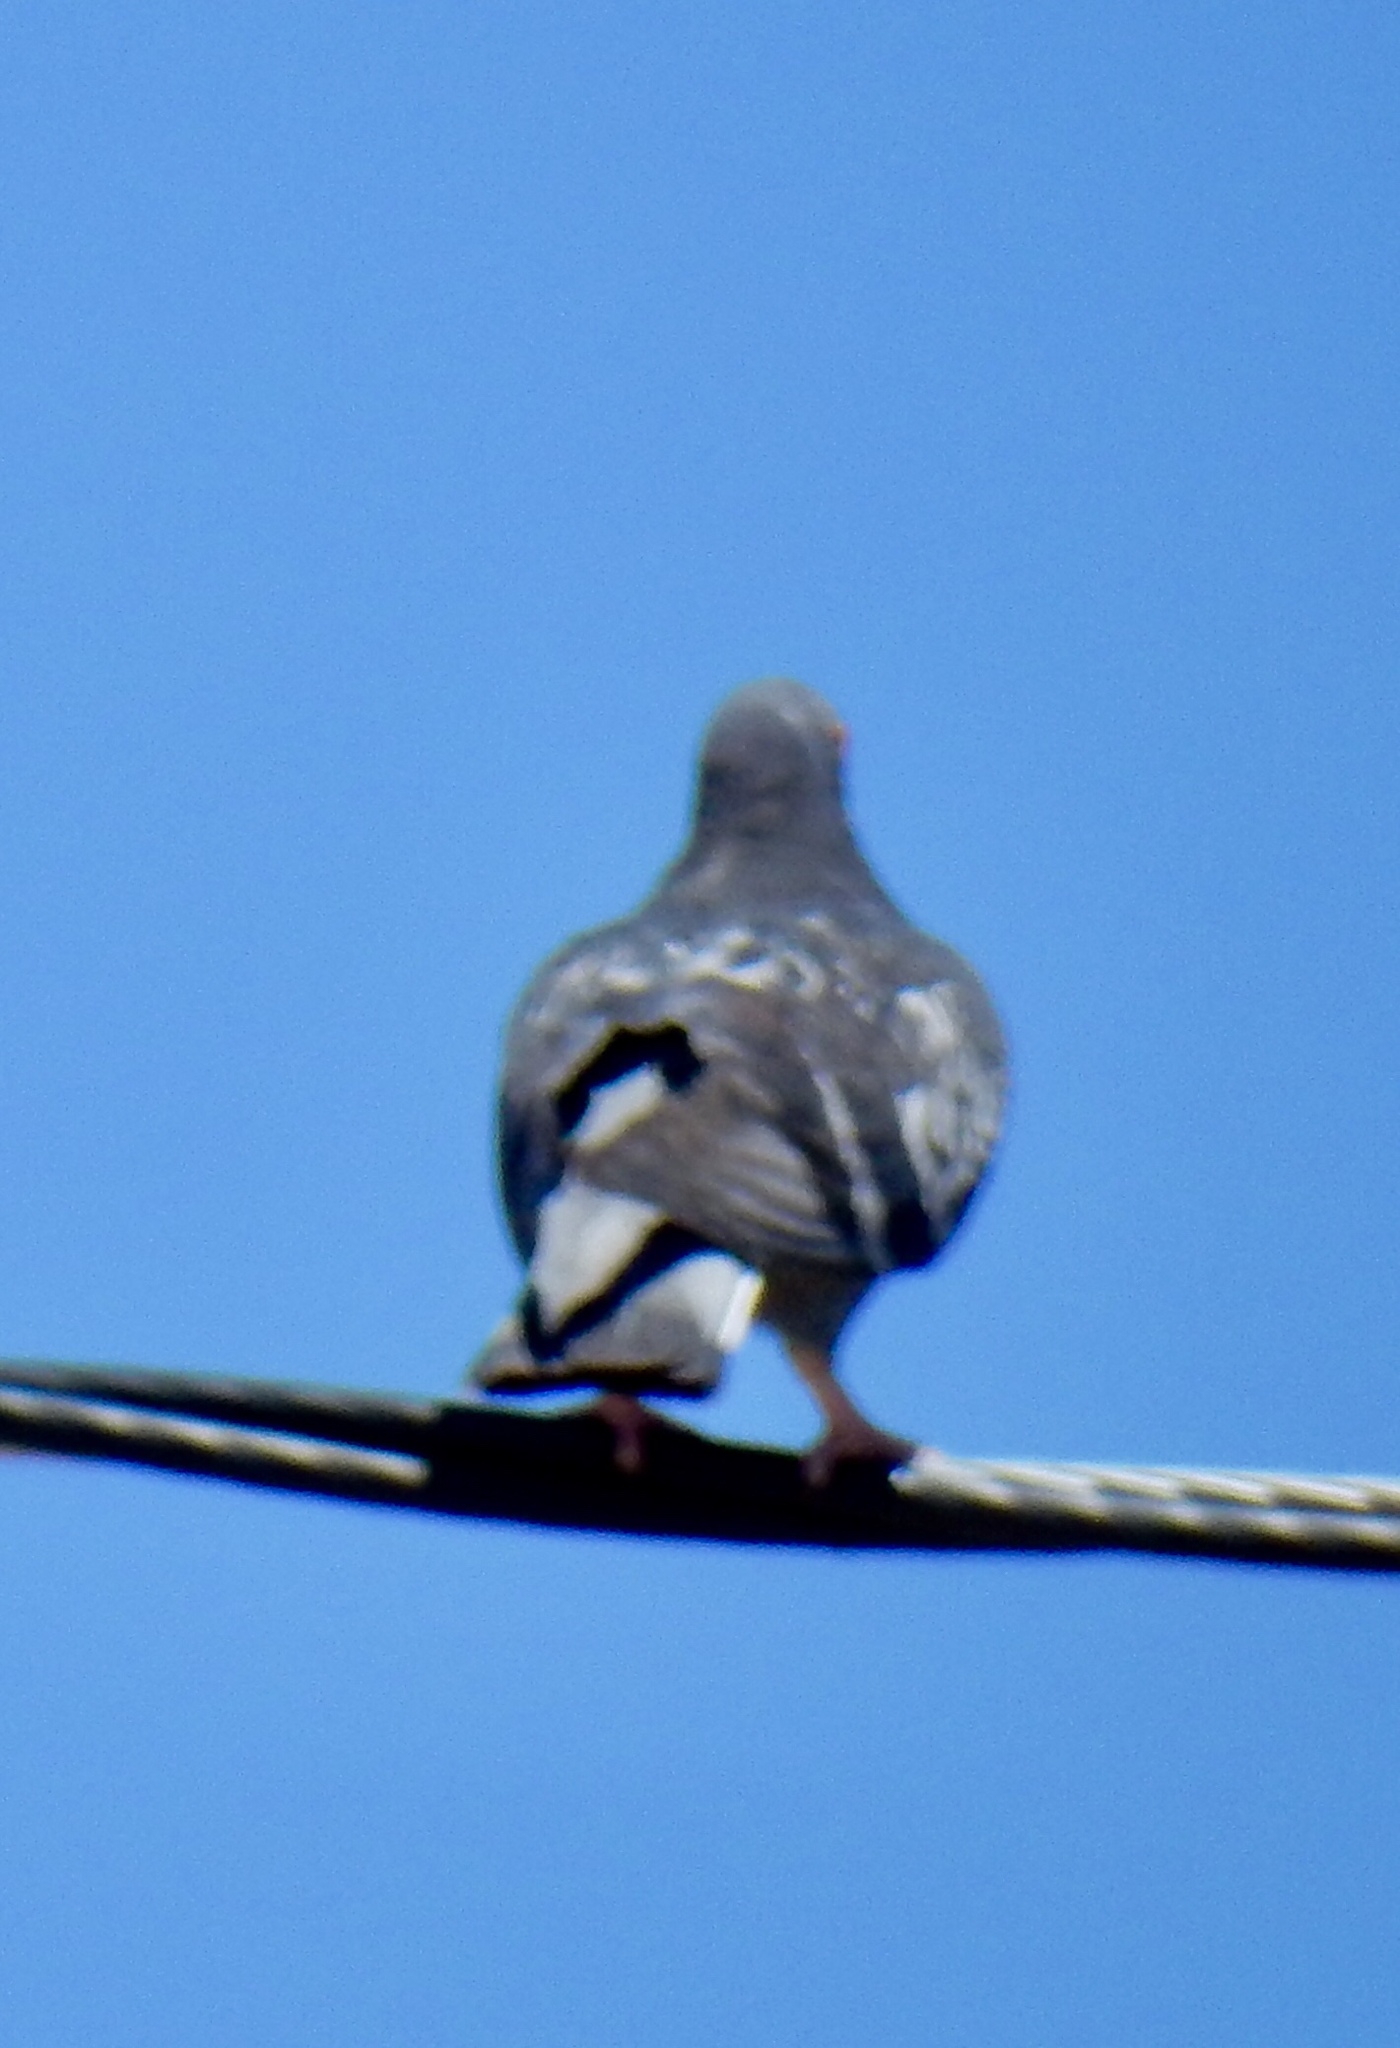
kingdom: Animalia
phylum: Chordata
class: Aves
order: Columbiformes
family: Columbidae
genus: Columba
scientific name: Columba livia
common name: Rock pigeon
